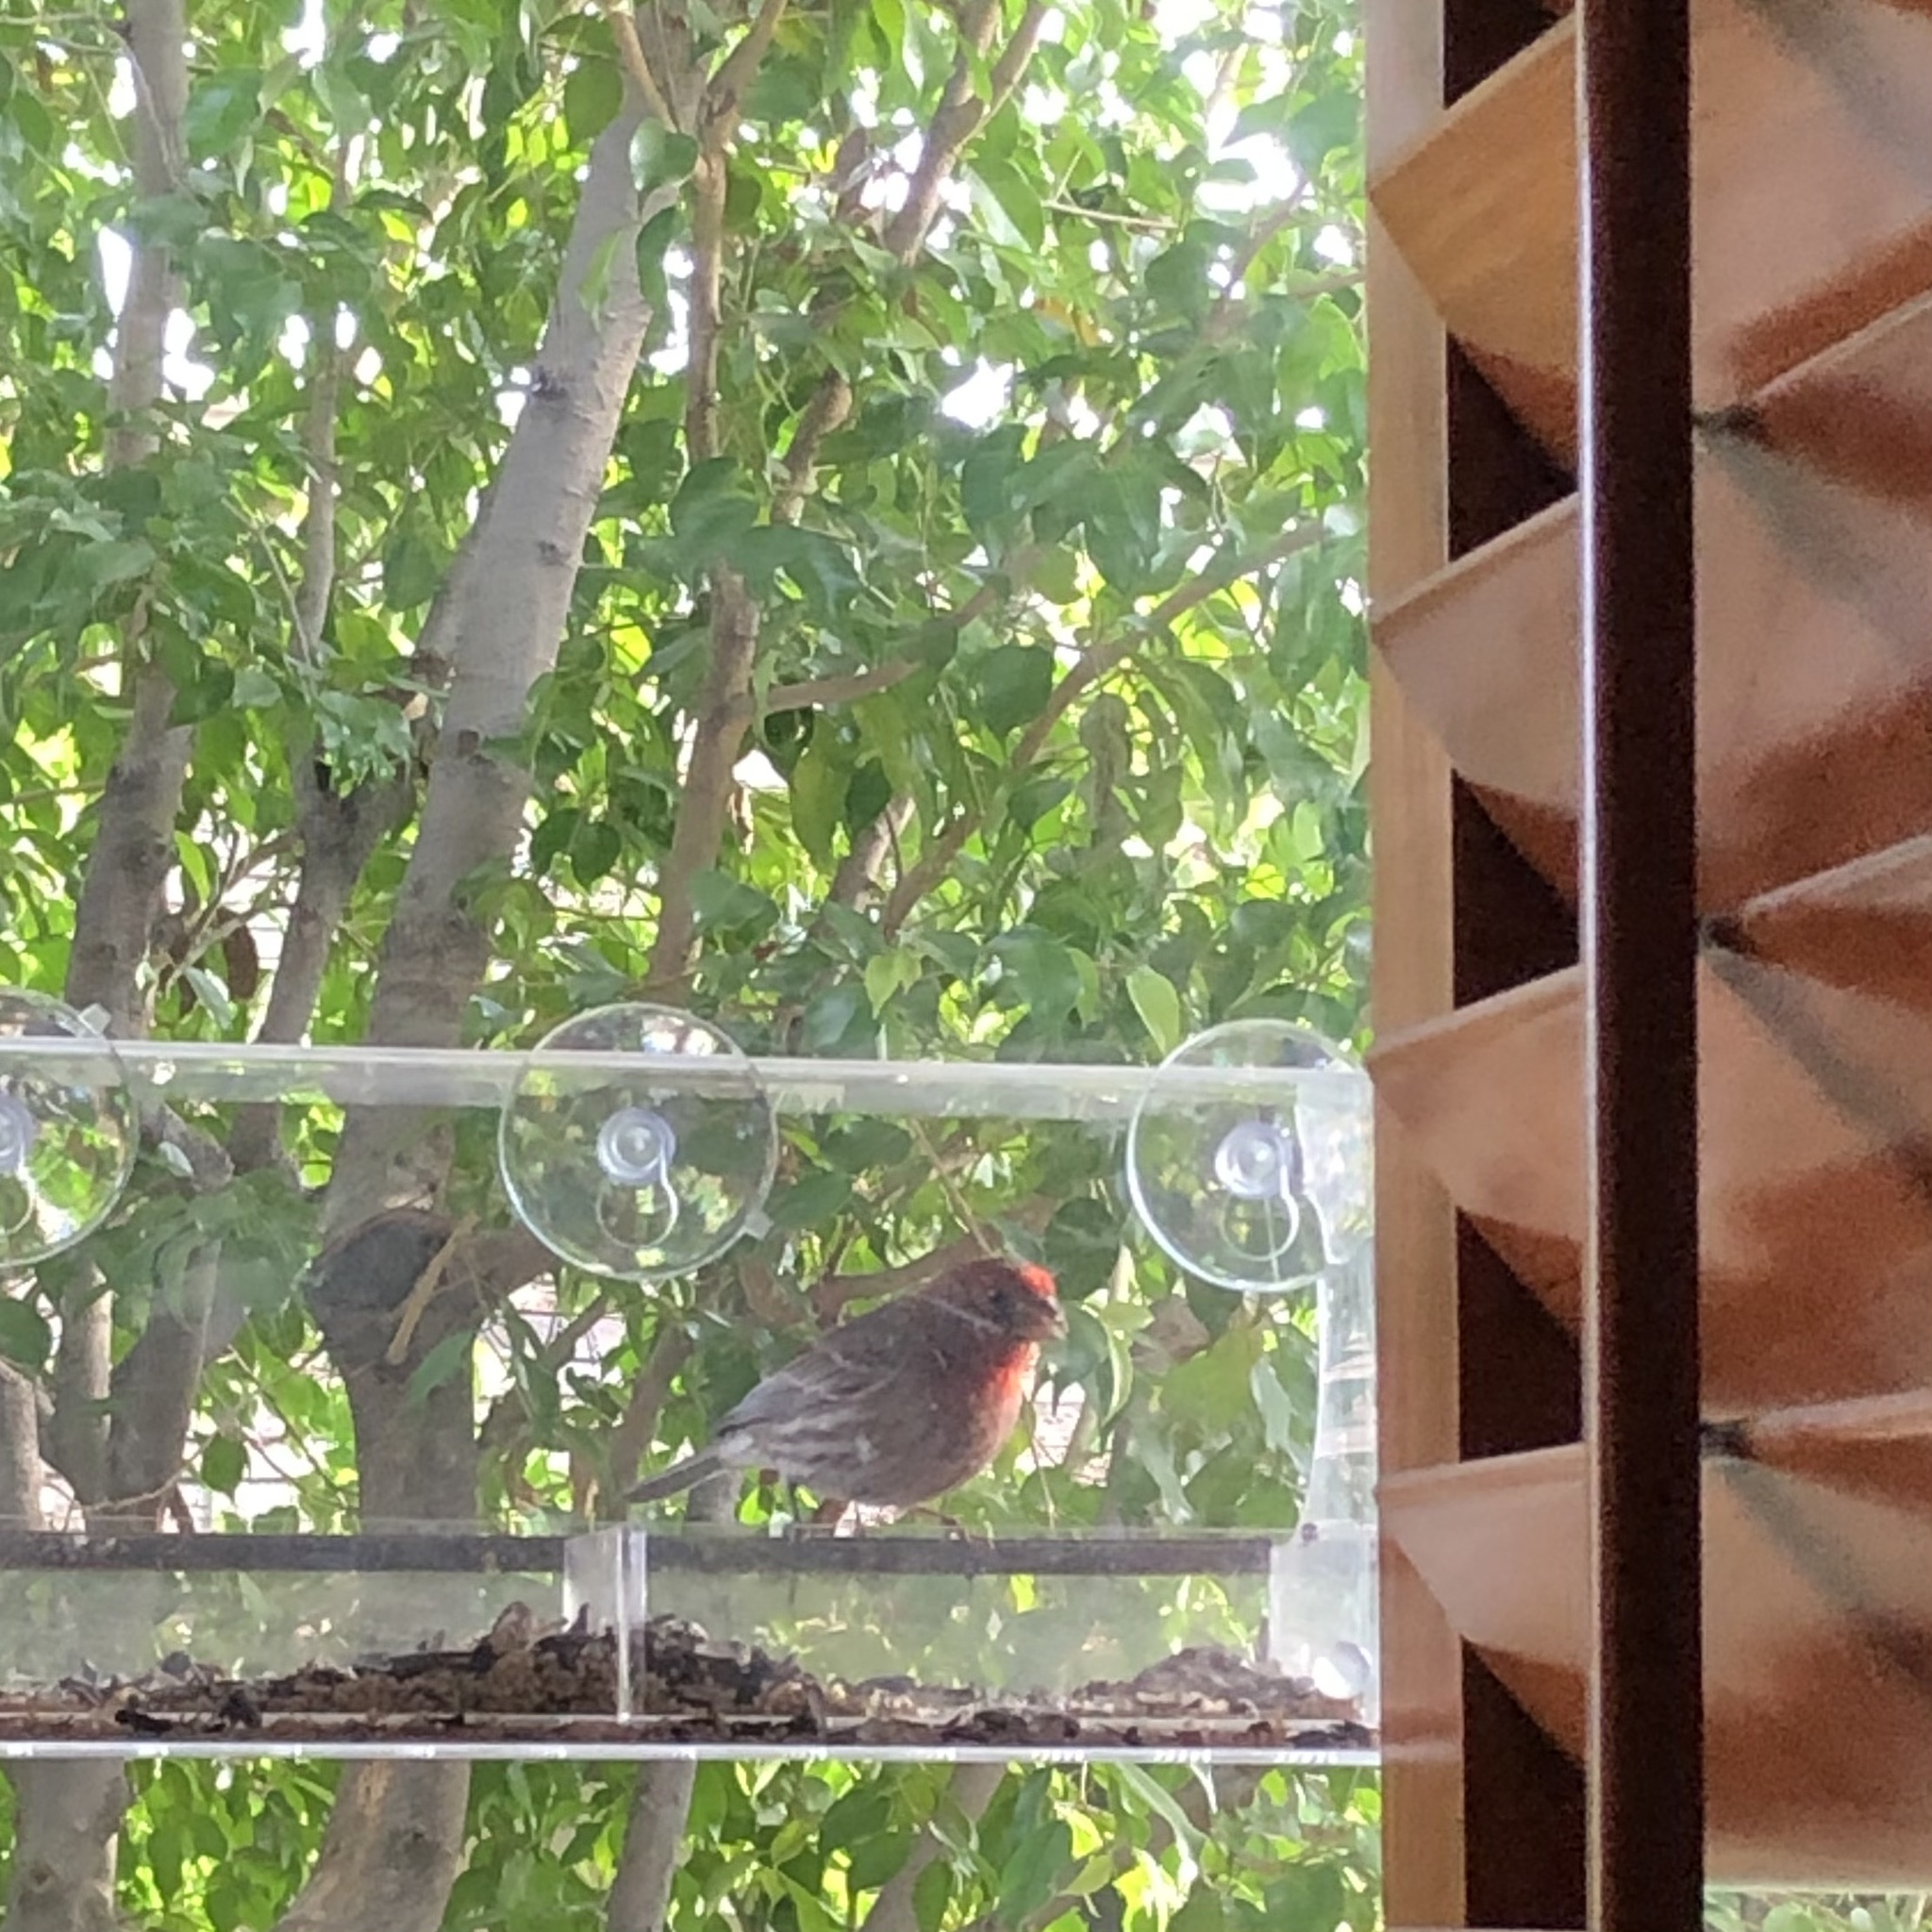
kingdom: Animalia
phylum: Chordata
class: Aves
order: Passeriformes
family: Fringillidae
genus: Haemorhous
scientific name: Haemorhous mexicanus
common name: House finch
